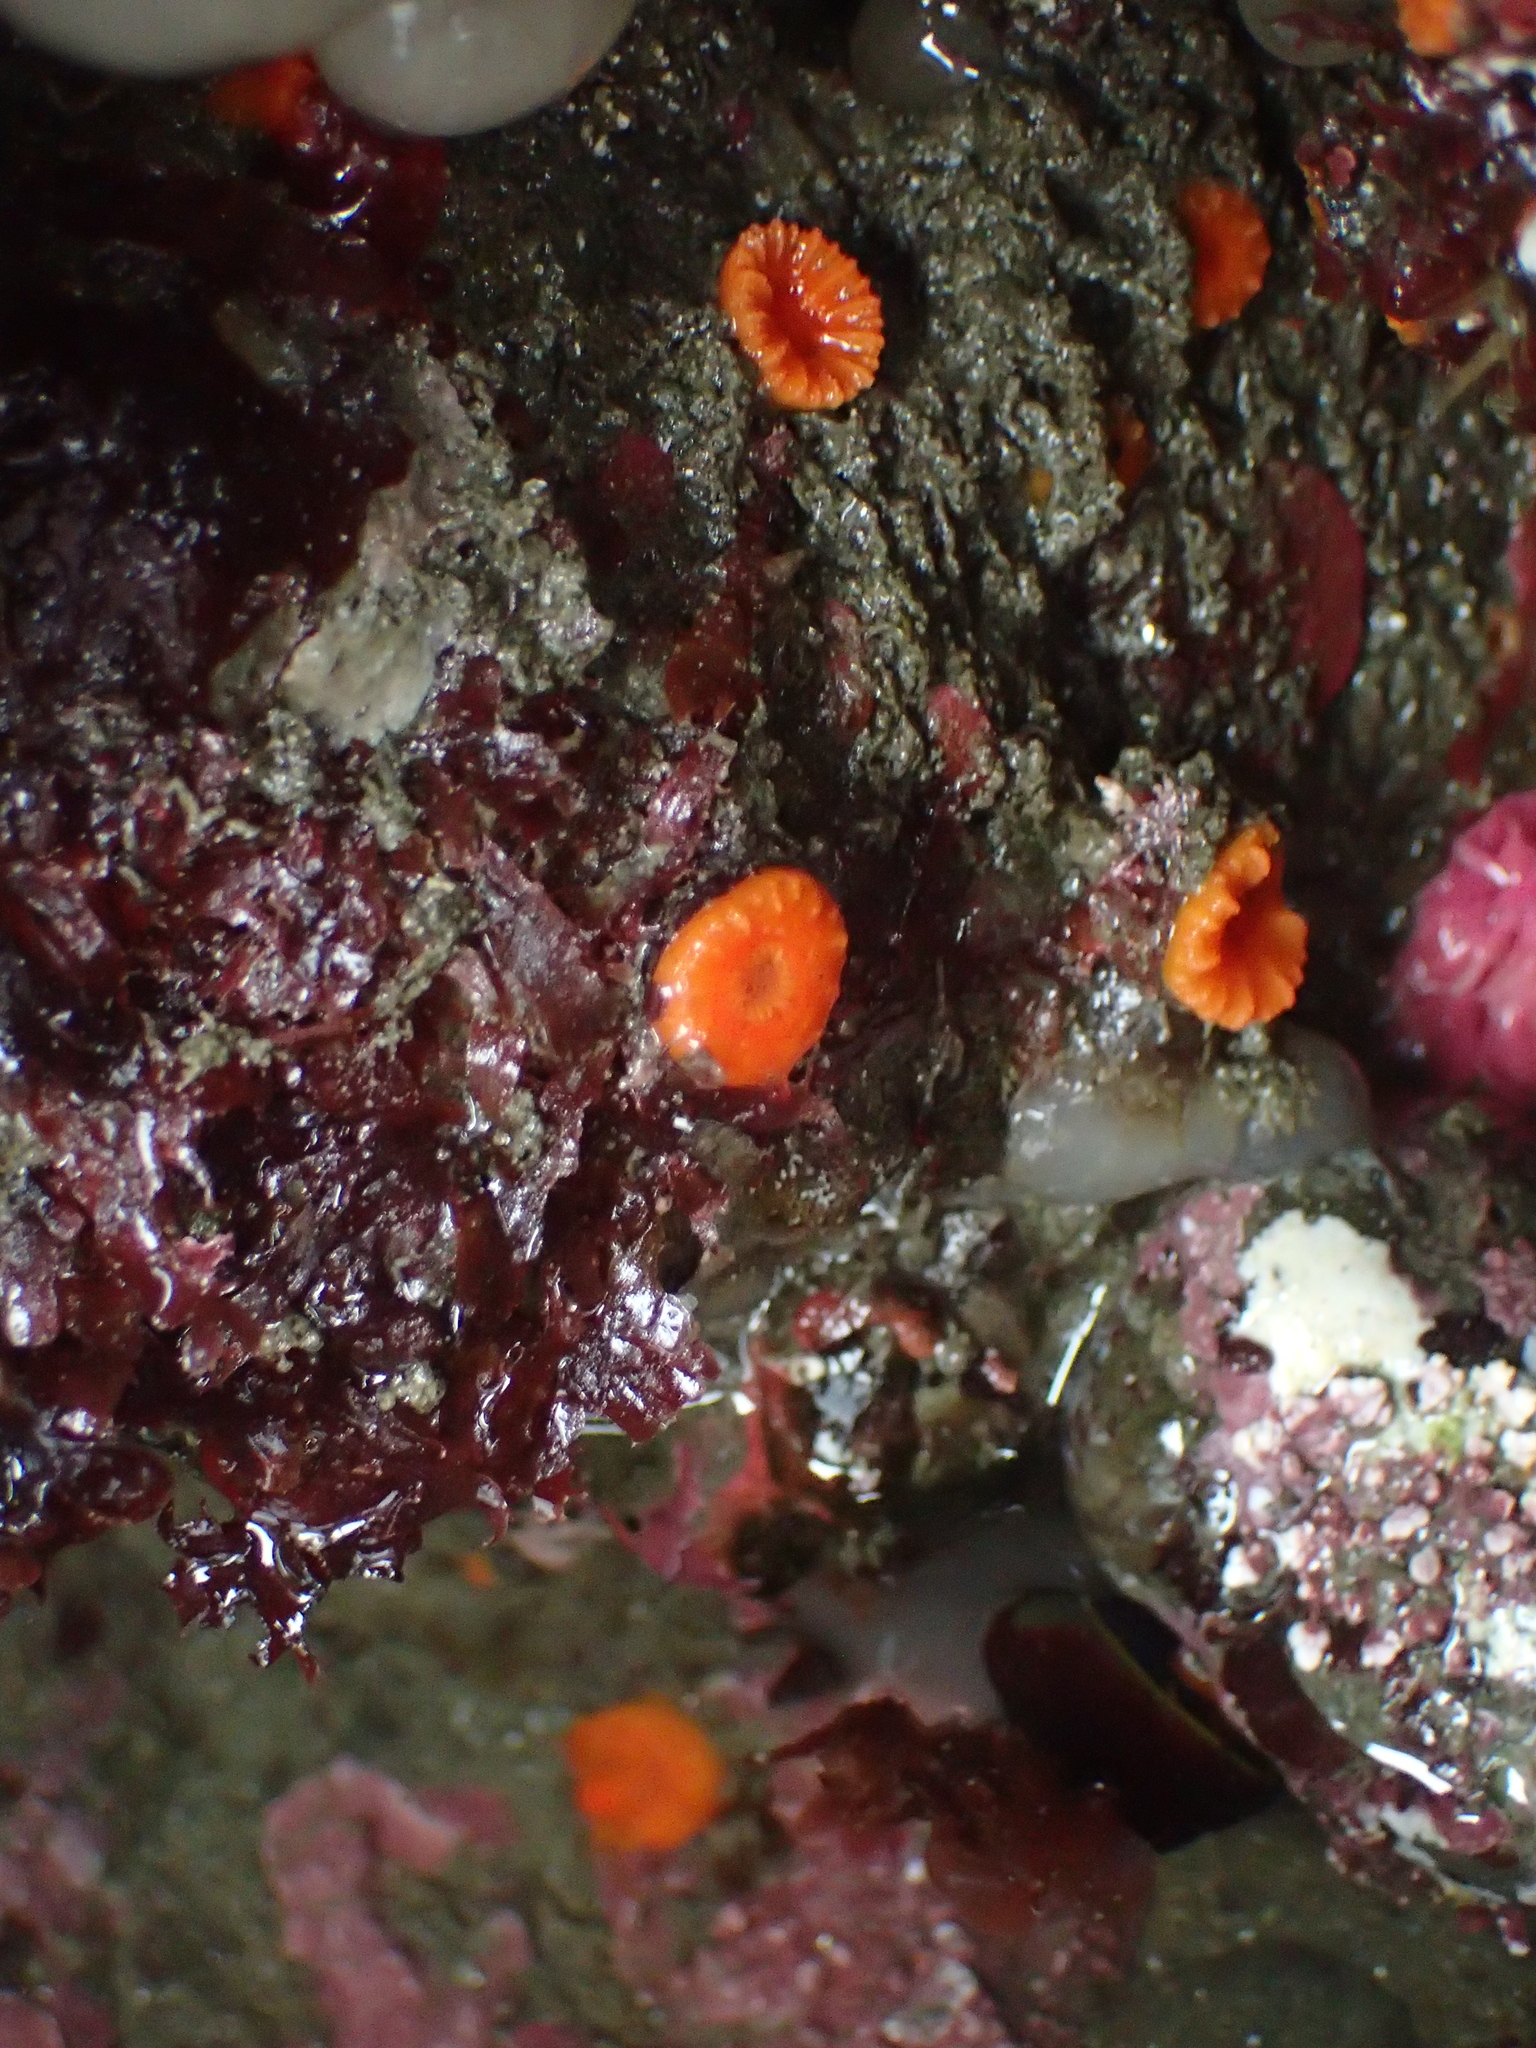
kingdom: Animalia
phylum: Cnidaria
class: Anthozoa
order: Scleractinia
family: Dendrophylliidae
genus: Balanophyllia
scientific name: Balanophyllia elegans
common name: Orange stony coral
